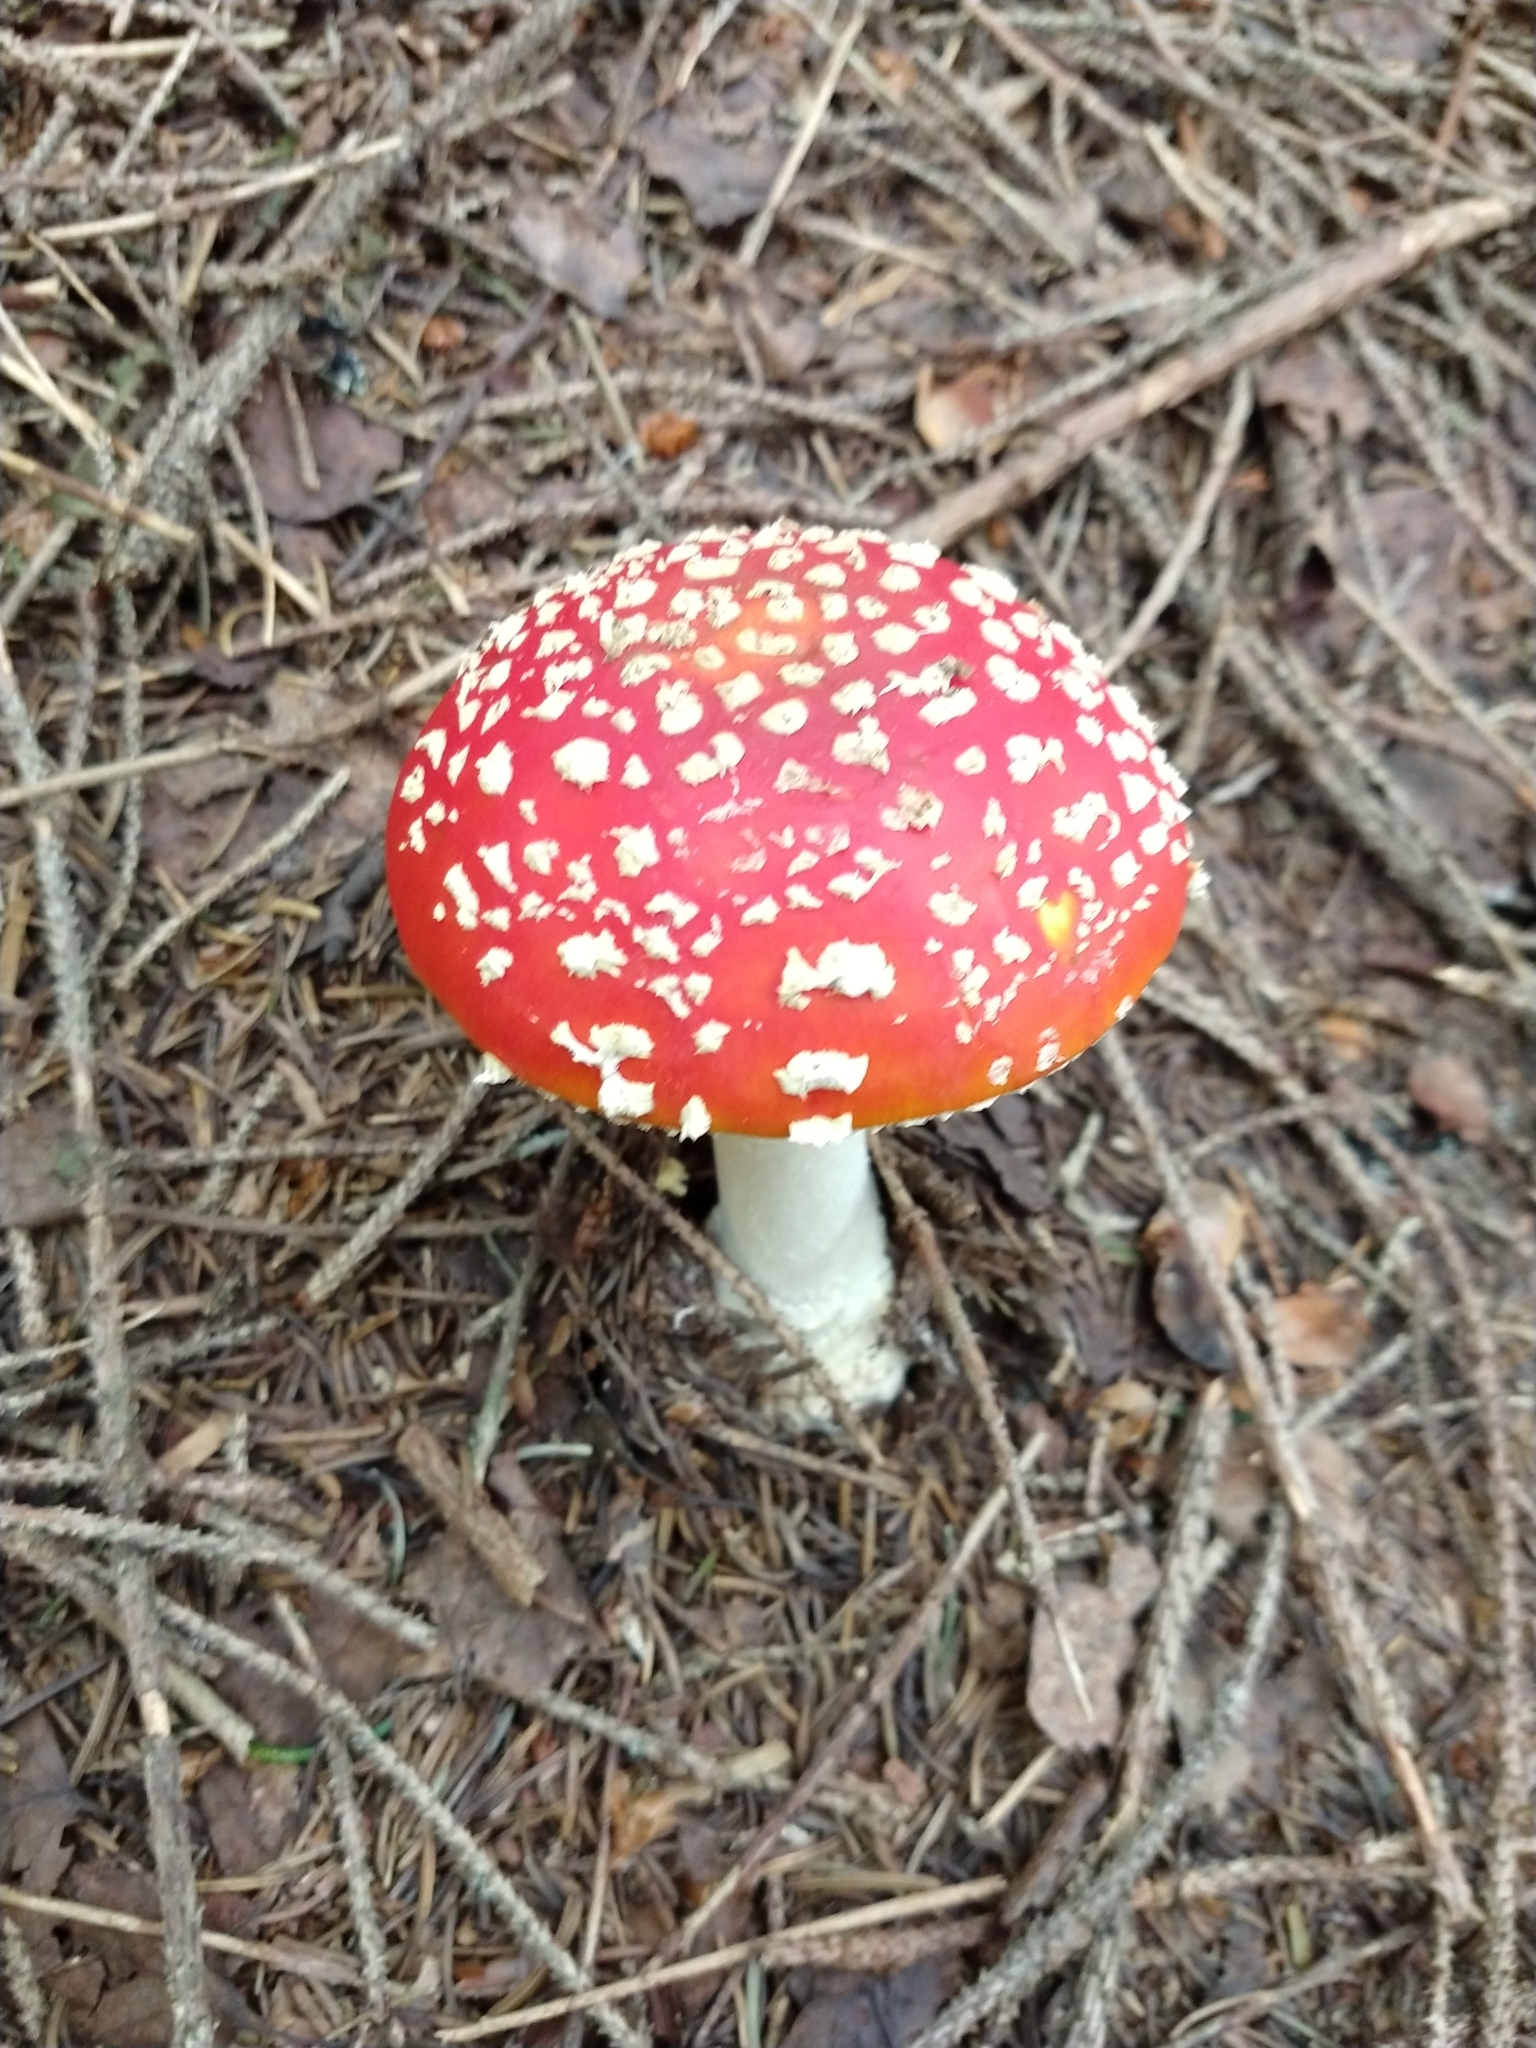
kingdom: Fungi
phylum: Basidiomycota
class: Agaricomycetes
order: Agaricales
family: Amanitaceae
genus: Amanita
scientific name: Amanita muscaria
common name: Fly agaric
